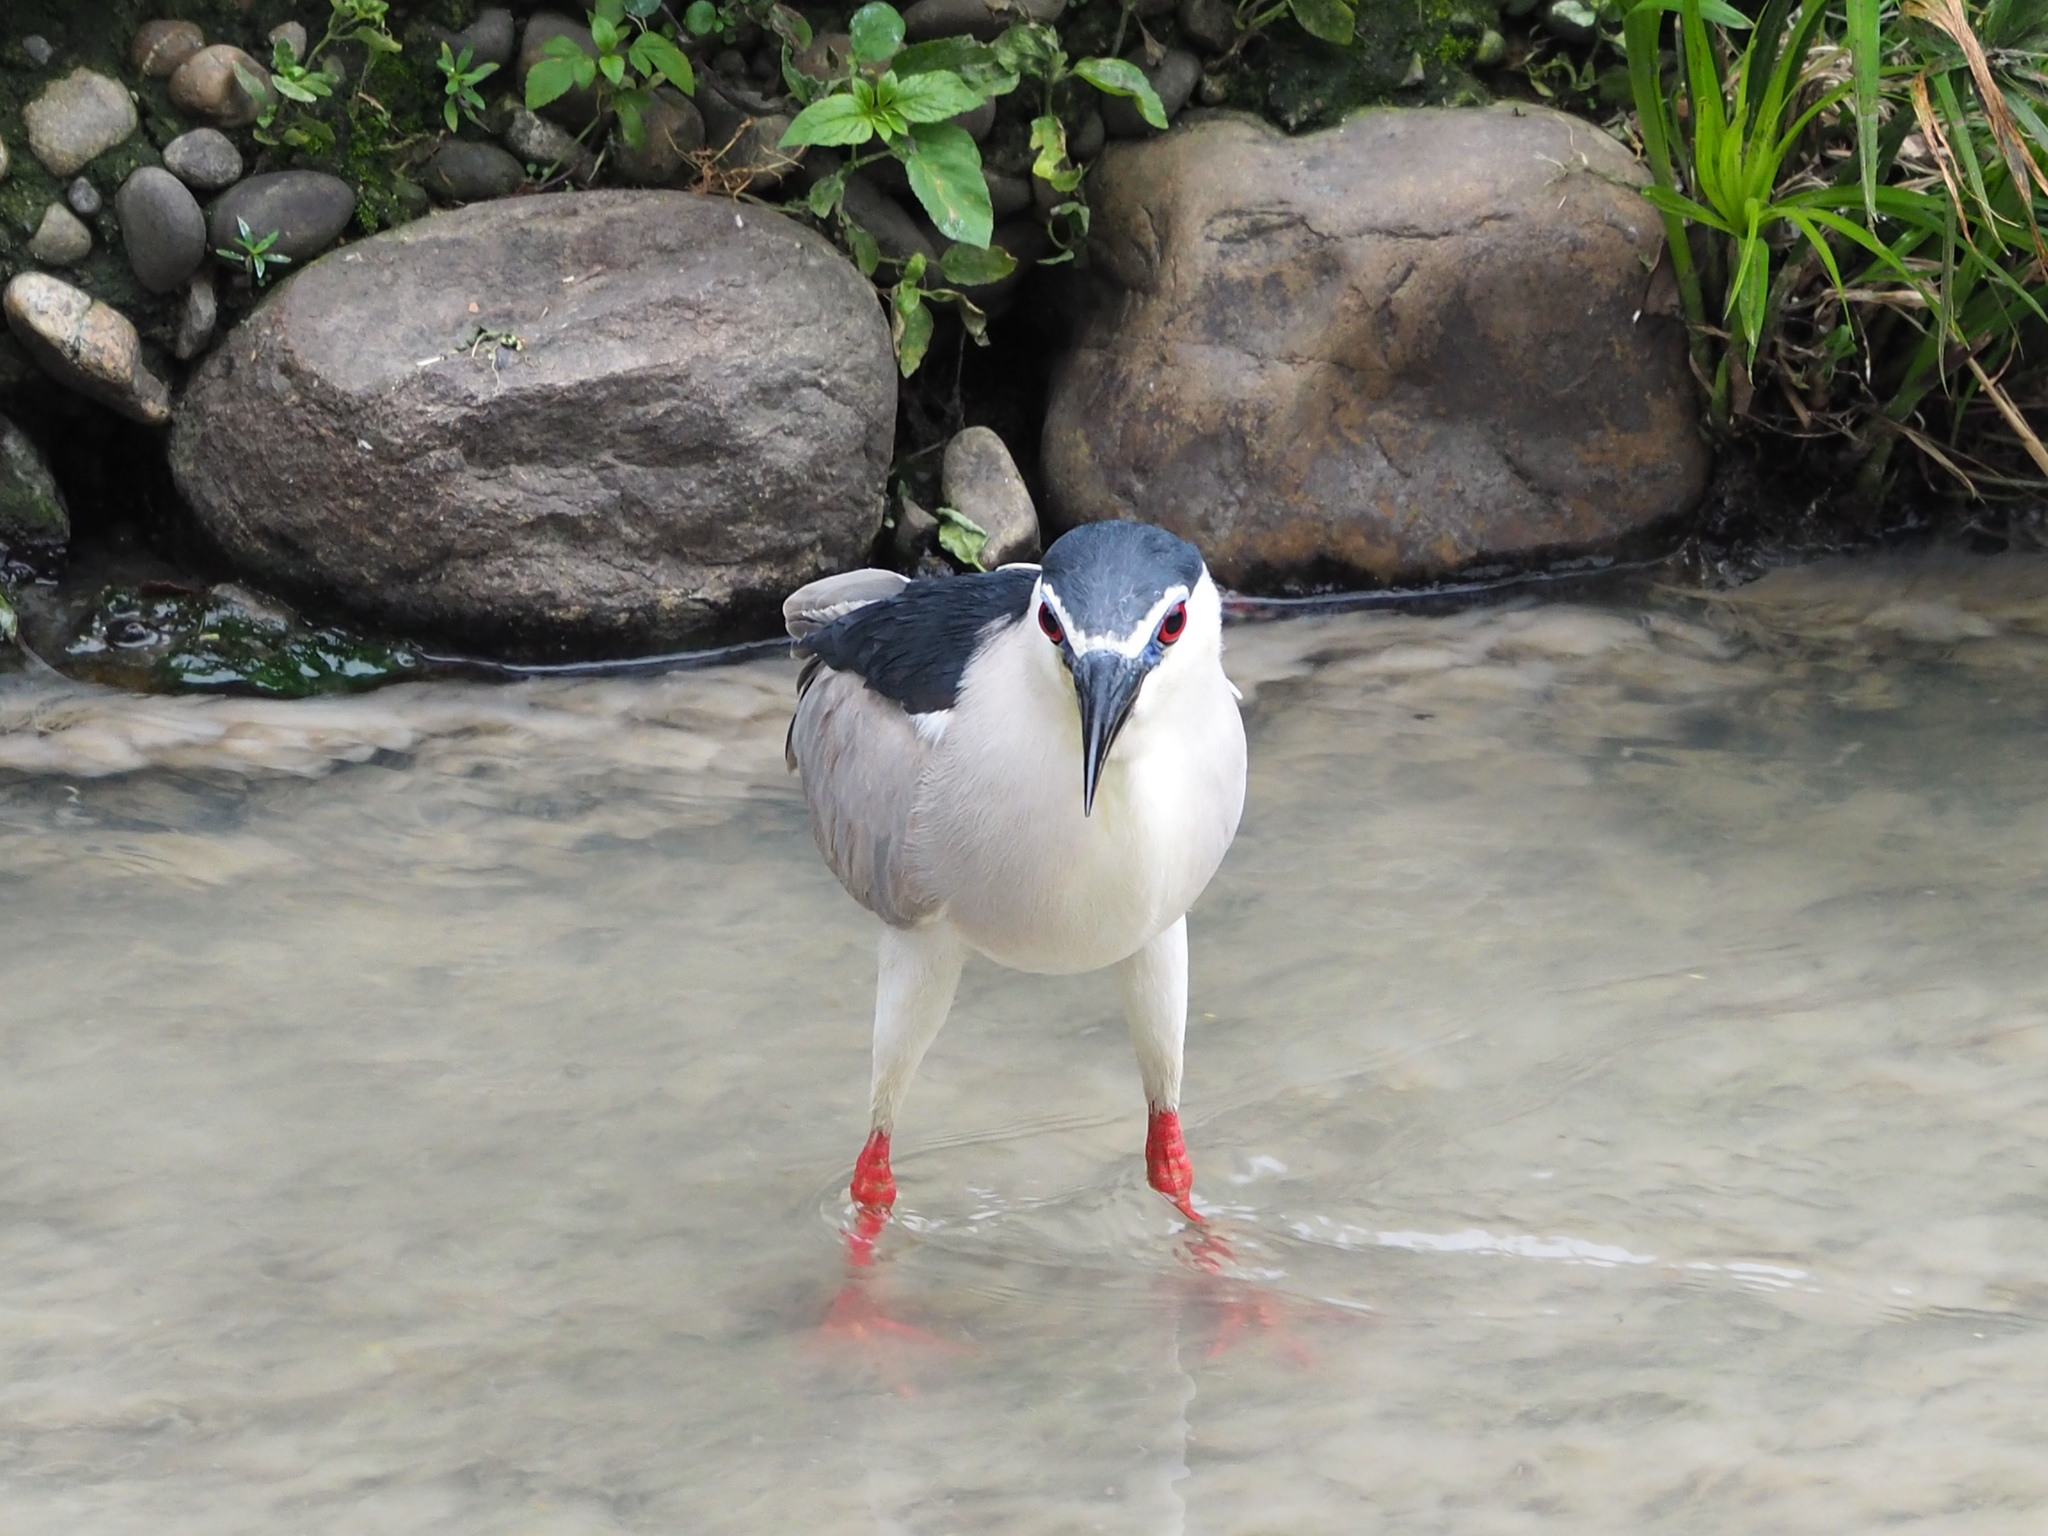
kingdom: Animalia
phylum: Chordata
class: Aves
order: Pelecaniformes
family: Ardeidae
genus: Nycticorax
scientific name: Nycticorax nycticorax
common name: Black-crowned night heron
